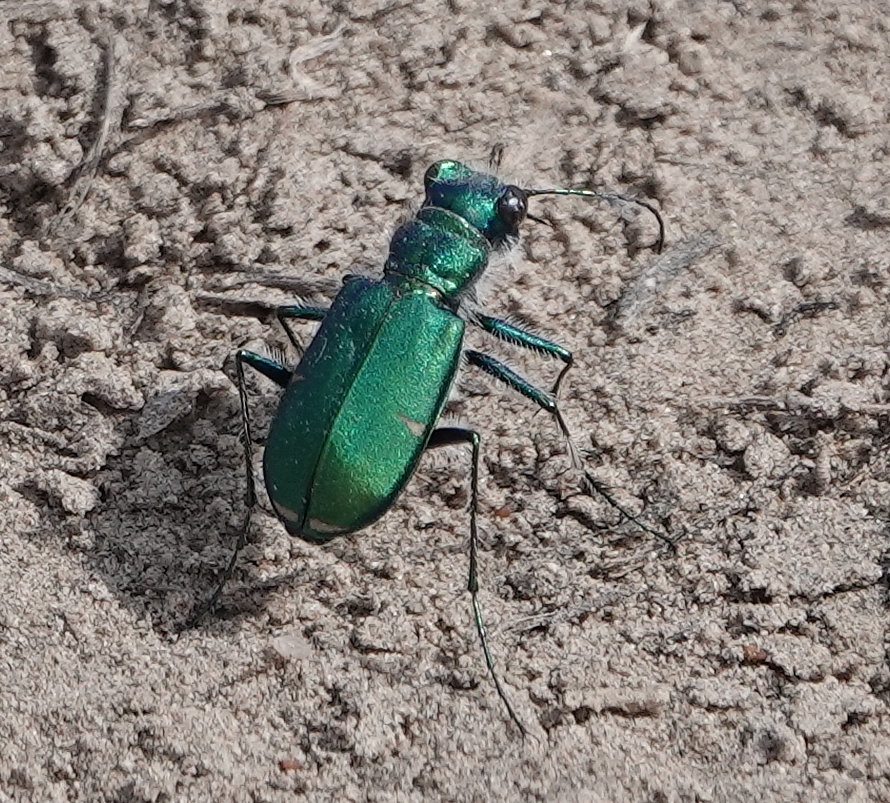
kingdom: Animalia
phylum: Arthropoda
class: Insecta
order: Coleoptera
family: Carabidae
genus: Cicindela
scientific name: Cicindela denverensis
